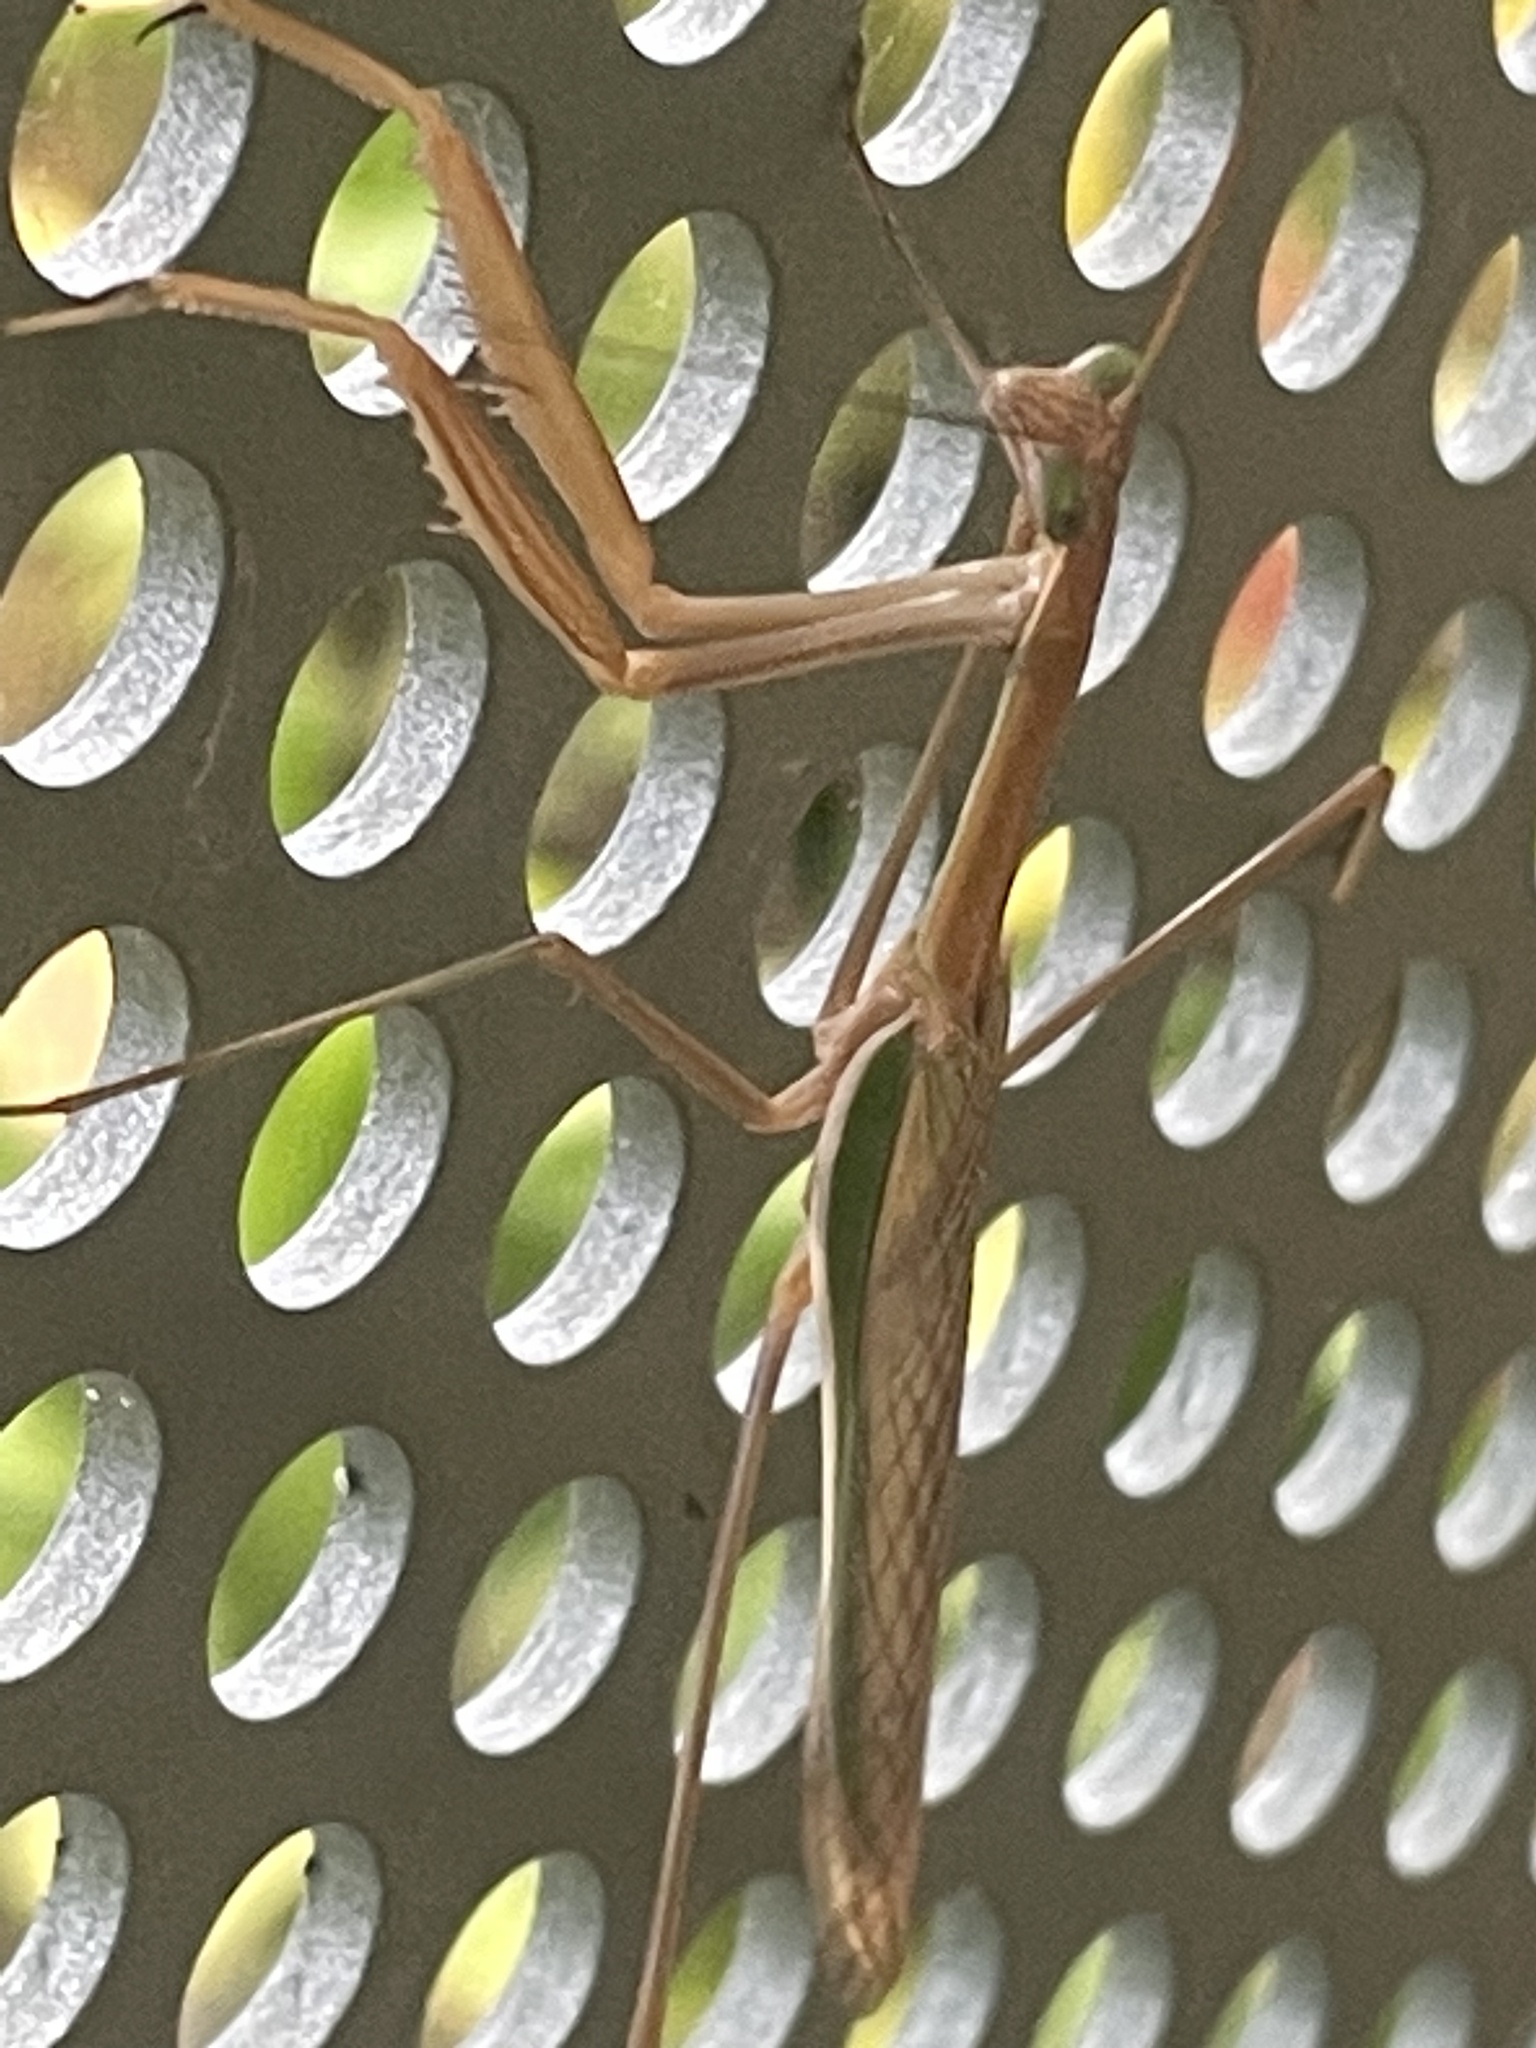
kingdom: Animalia
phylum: Arthropoda
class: Insecta
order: Mantodea
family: Mantidae
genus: Tenodera
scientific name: Tenodera australasiae
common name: Purple-winged mantis
